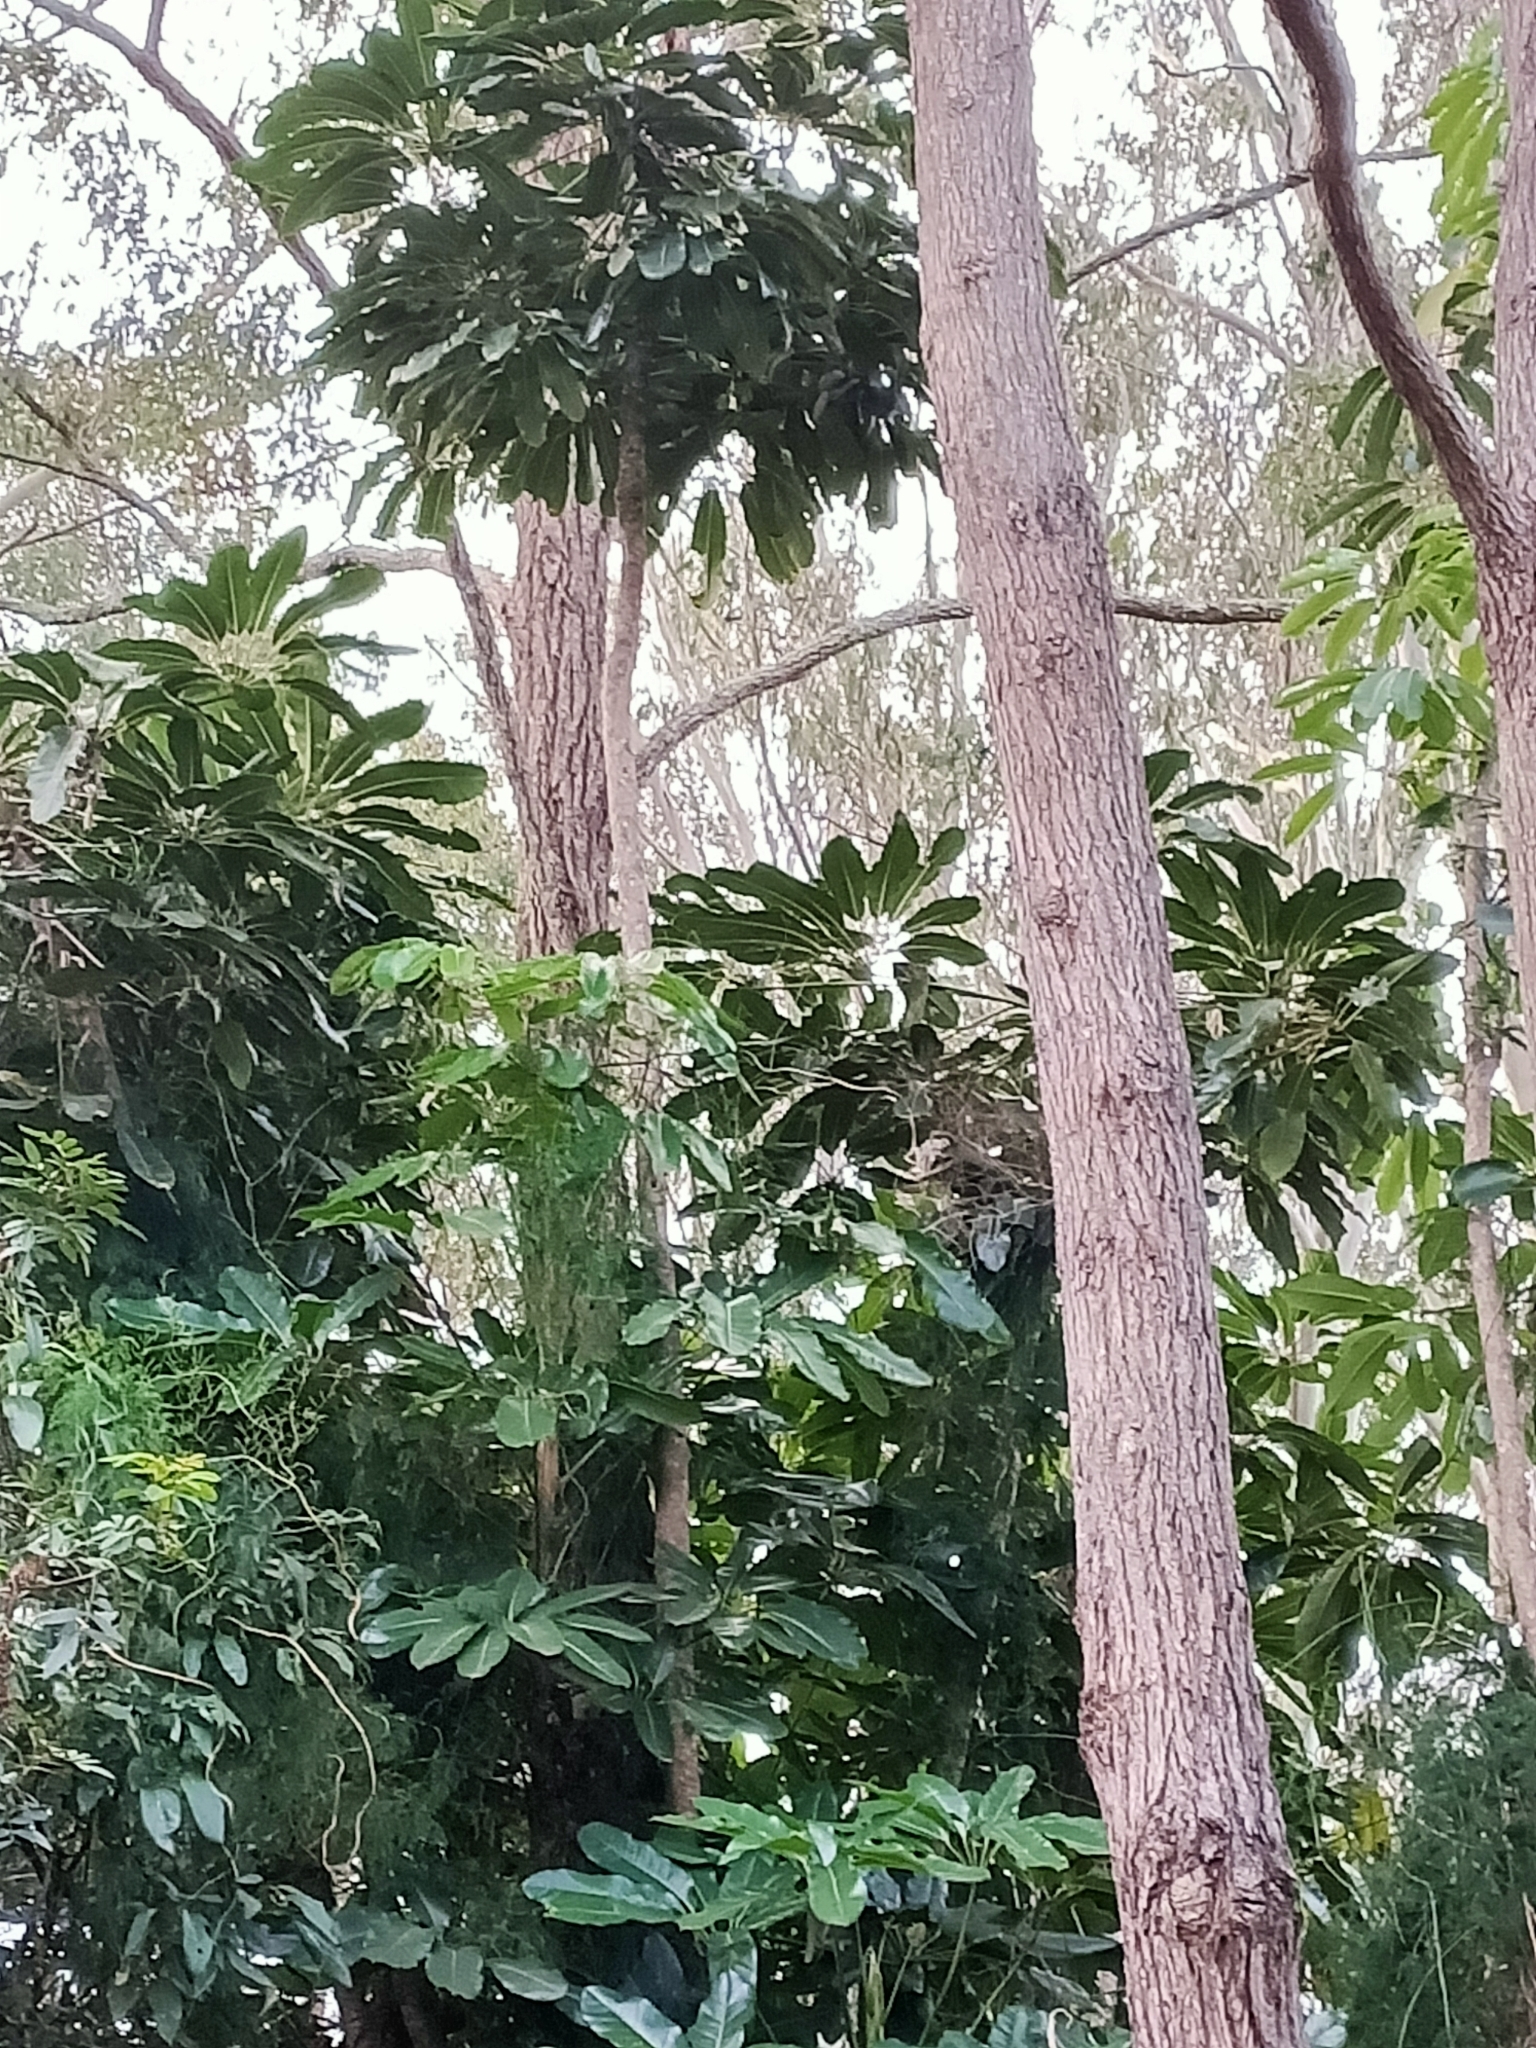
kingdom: Plantae
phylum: Tracheophyta
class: Magnoliopsida
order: Apiales
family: Araliaceae
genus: Heptapleurum
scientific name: Heptapleurum actinophyllum
